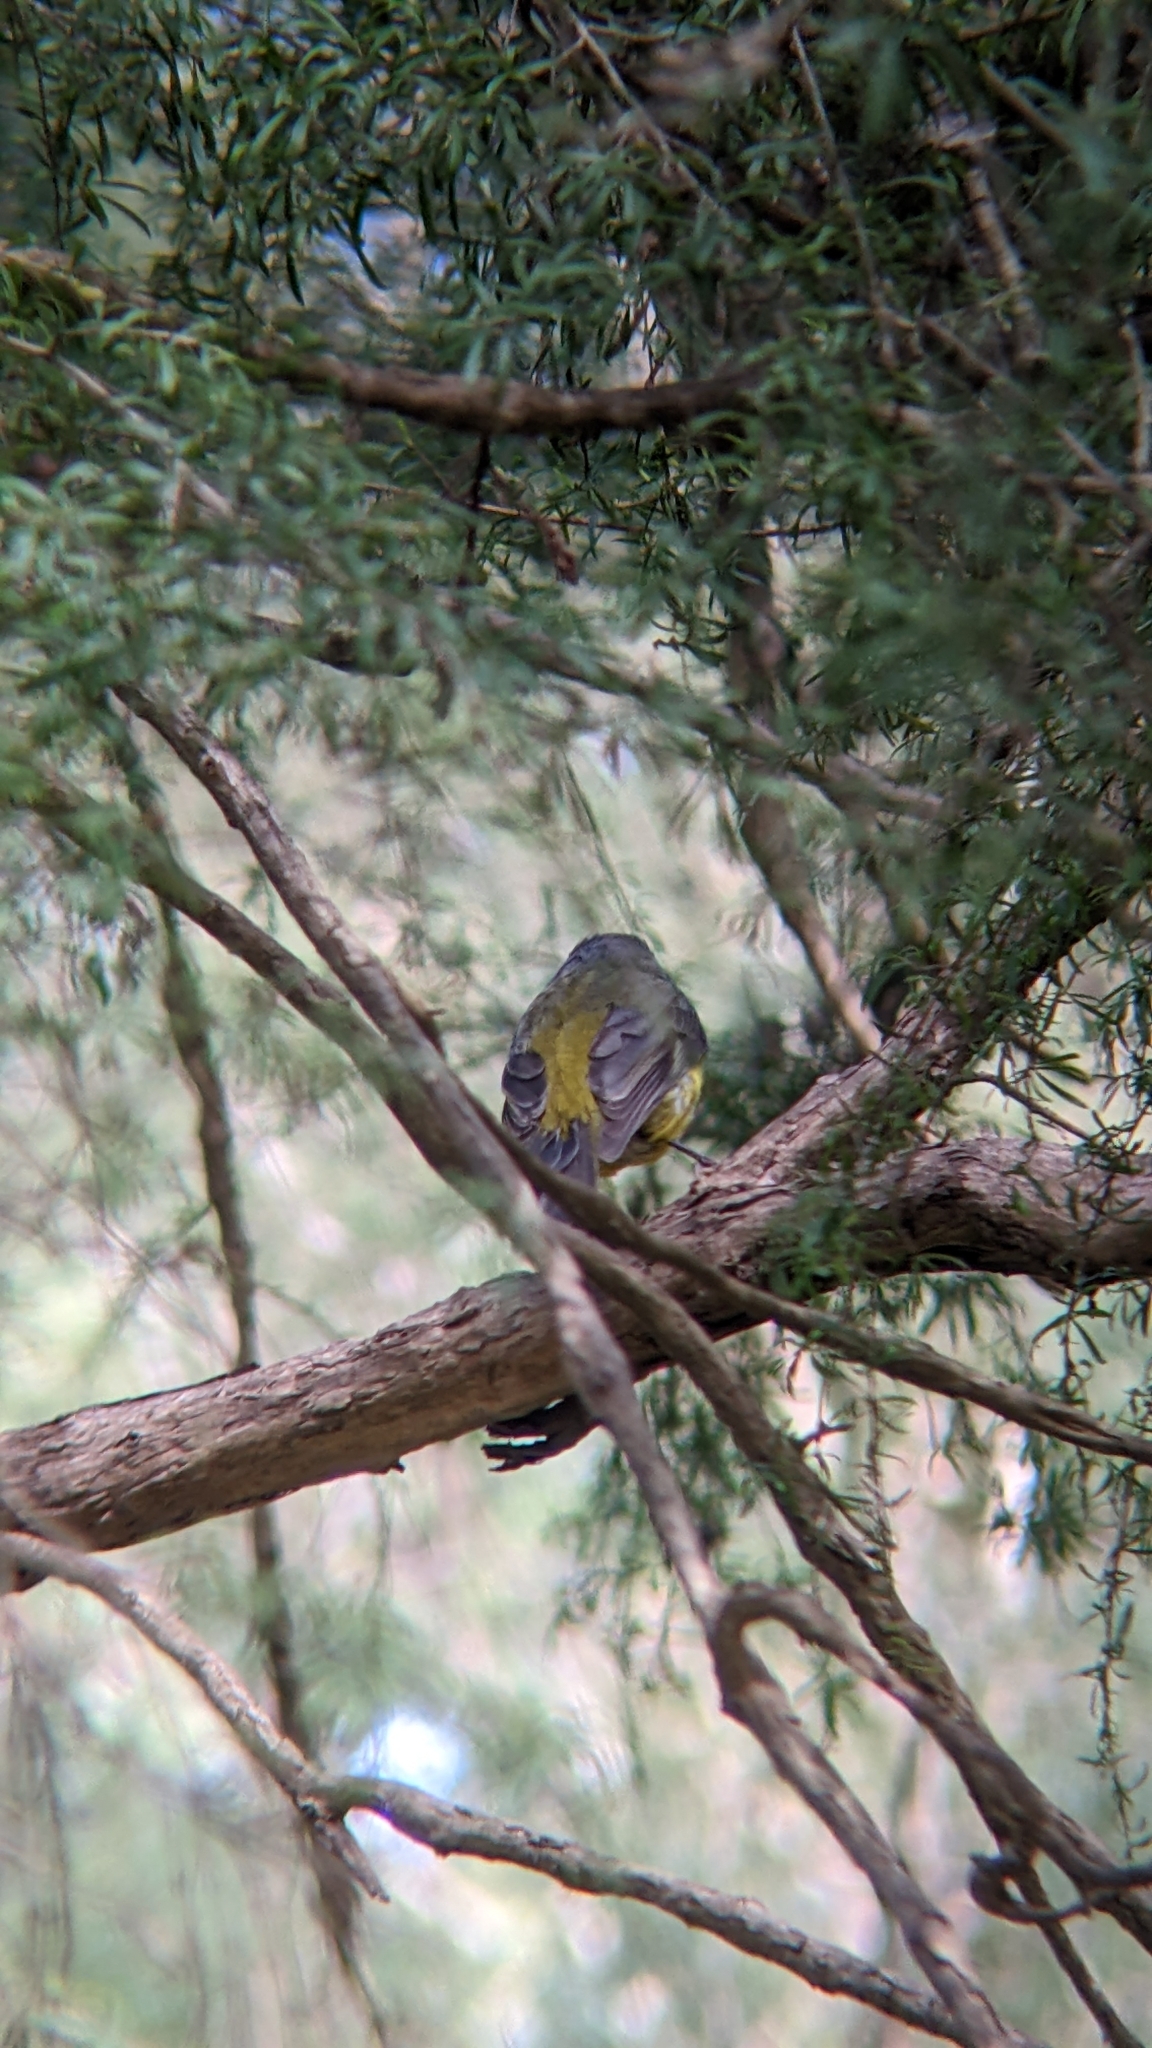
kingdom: Animalia
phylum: Chordata
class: Aves
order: Passeriformes
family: Petroicidae
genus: Eopsaltria
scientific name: Eopsaltria australis
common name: Eastern yellow robin
